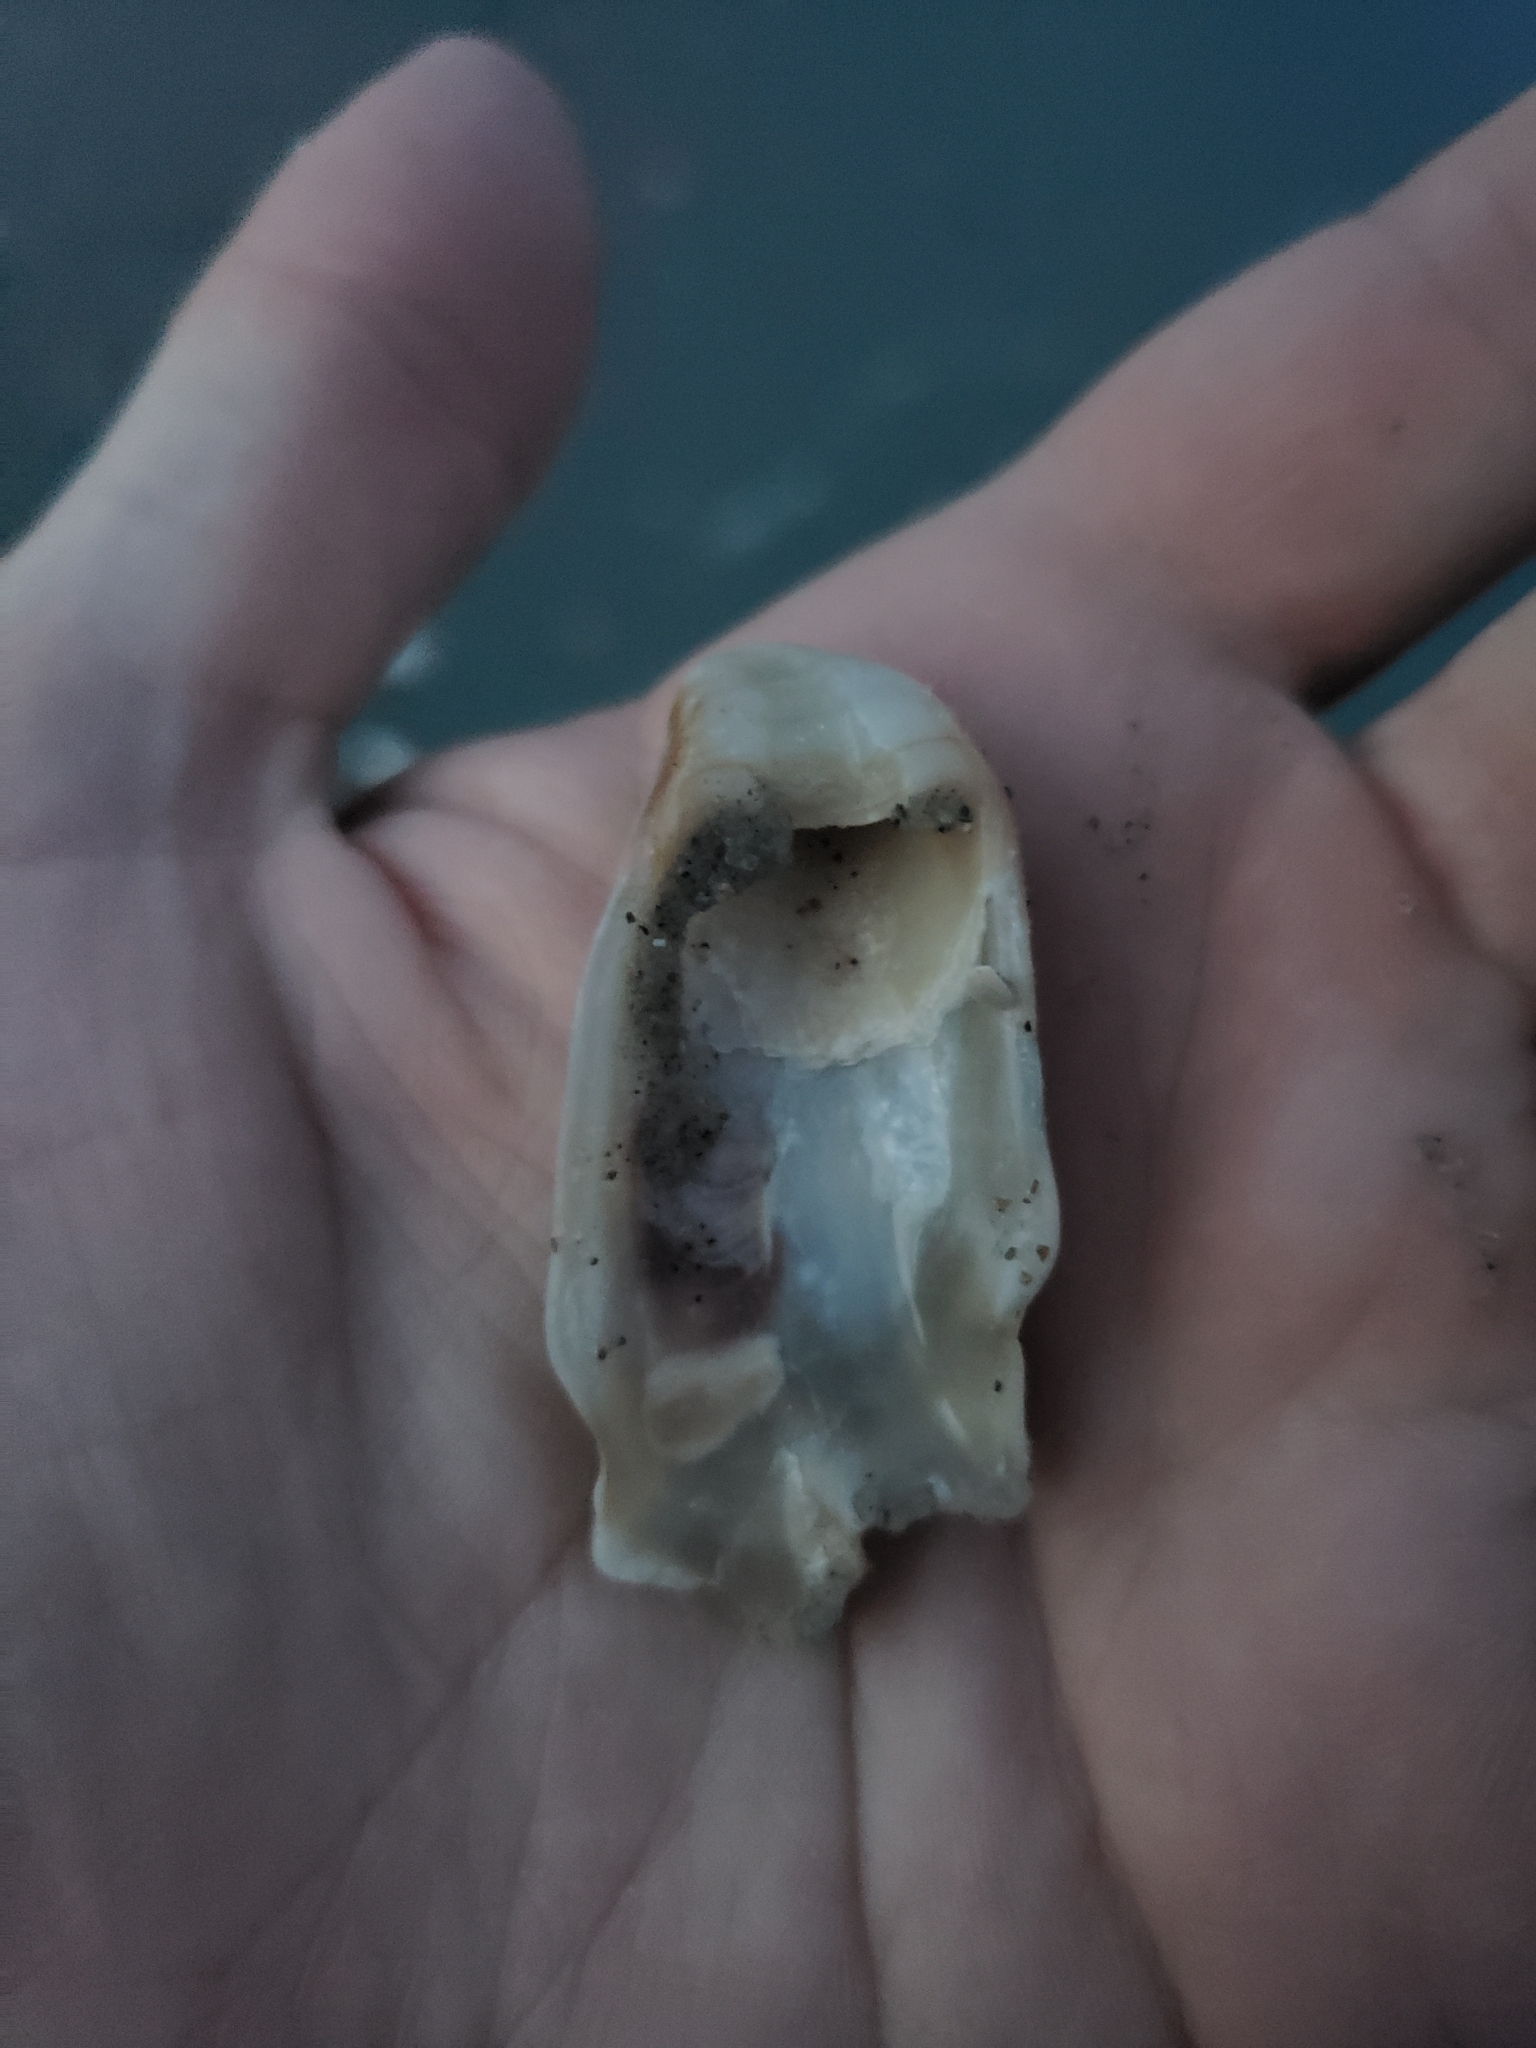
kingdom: Animalia
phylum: Mollusca
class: Bivalvia
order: Ostreida
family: Ostreidae
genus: Crassostrea
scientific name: Crassostrea virginica
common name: American oyster
